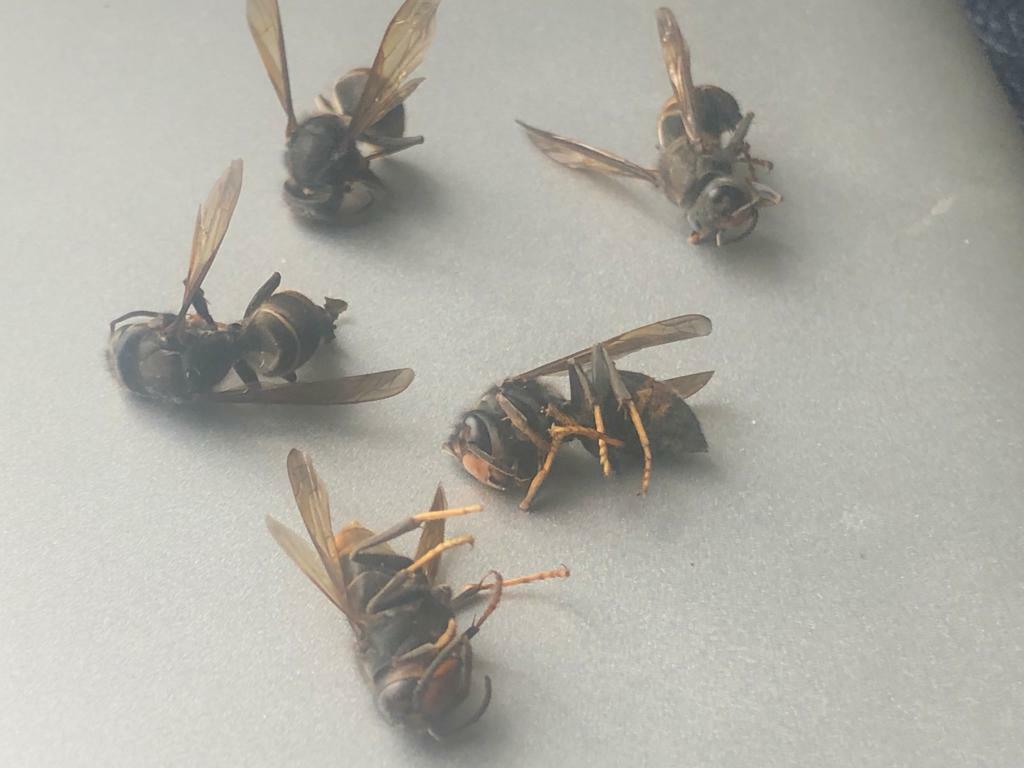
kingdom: Animalia
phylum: Arthropoda
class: Insecta
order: Hymenoptera
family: Vespidae
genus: Vespa
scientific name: Vespa velutina
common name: Asian hornet
